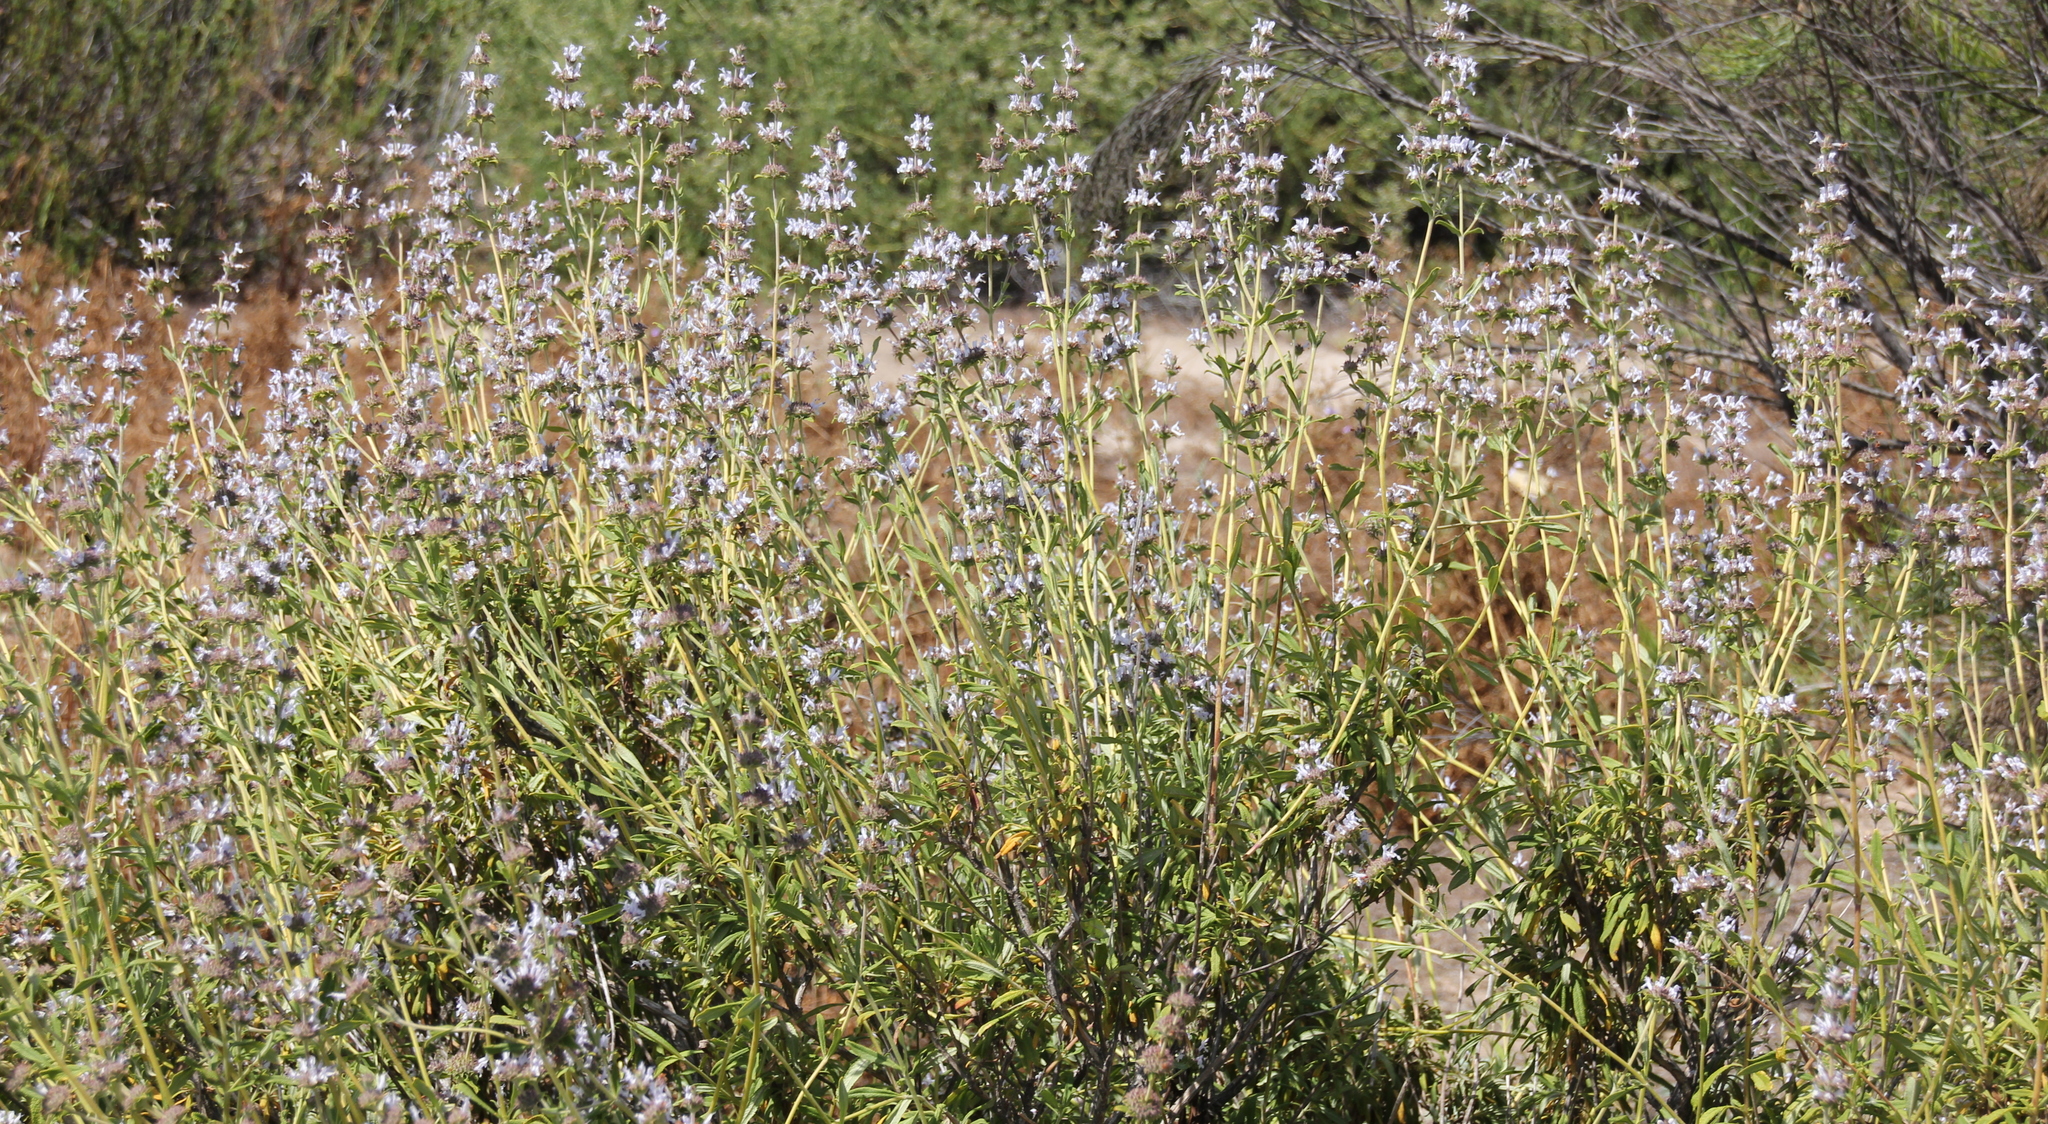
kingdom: Plantae
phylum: Tracheophyta
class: Magnoliopsida
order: Lamiales
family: Lamiaceae
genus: Salvia
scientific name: Salvia mellifera
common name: Black sage
